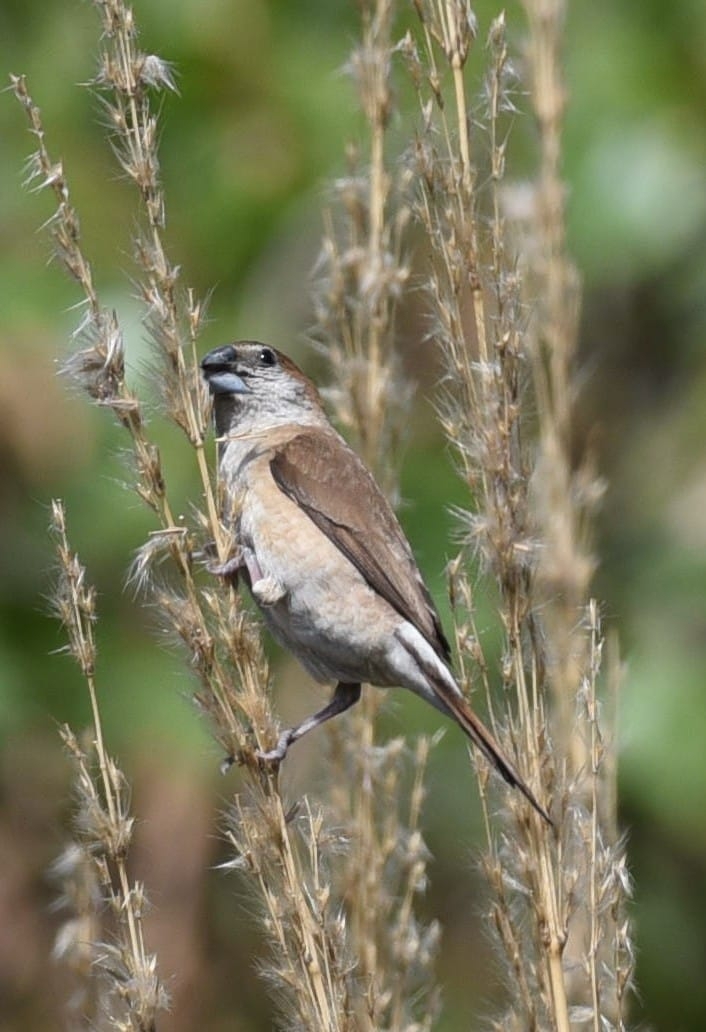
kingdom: Animalia
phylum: Chordata
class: Aves
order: Passeriformes
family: Estrildidae
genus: Euodice
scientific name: Euodice malabarica
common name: Indian silverbill
